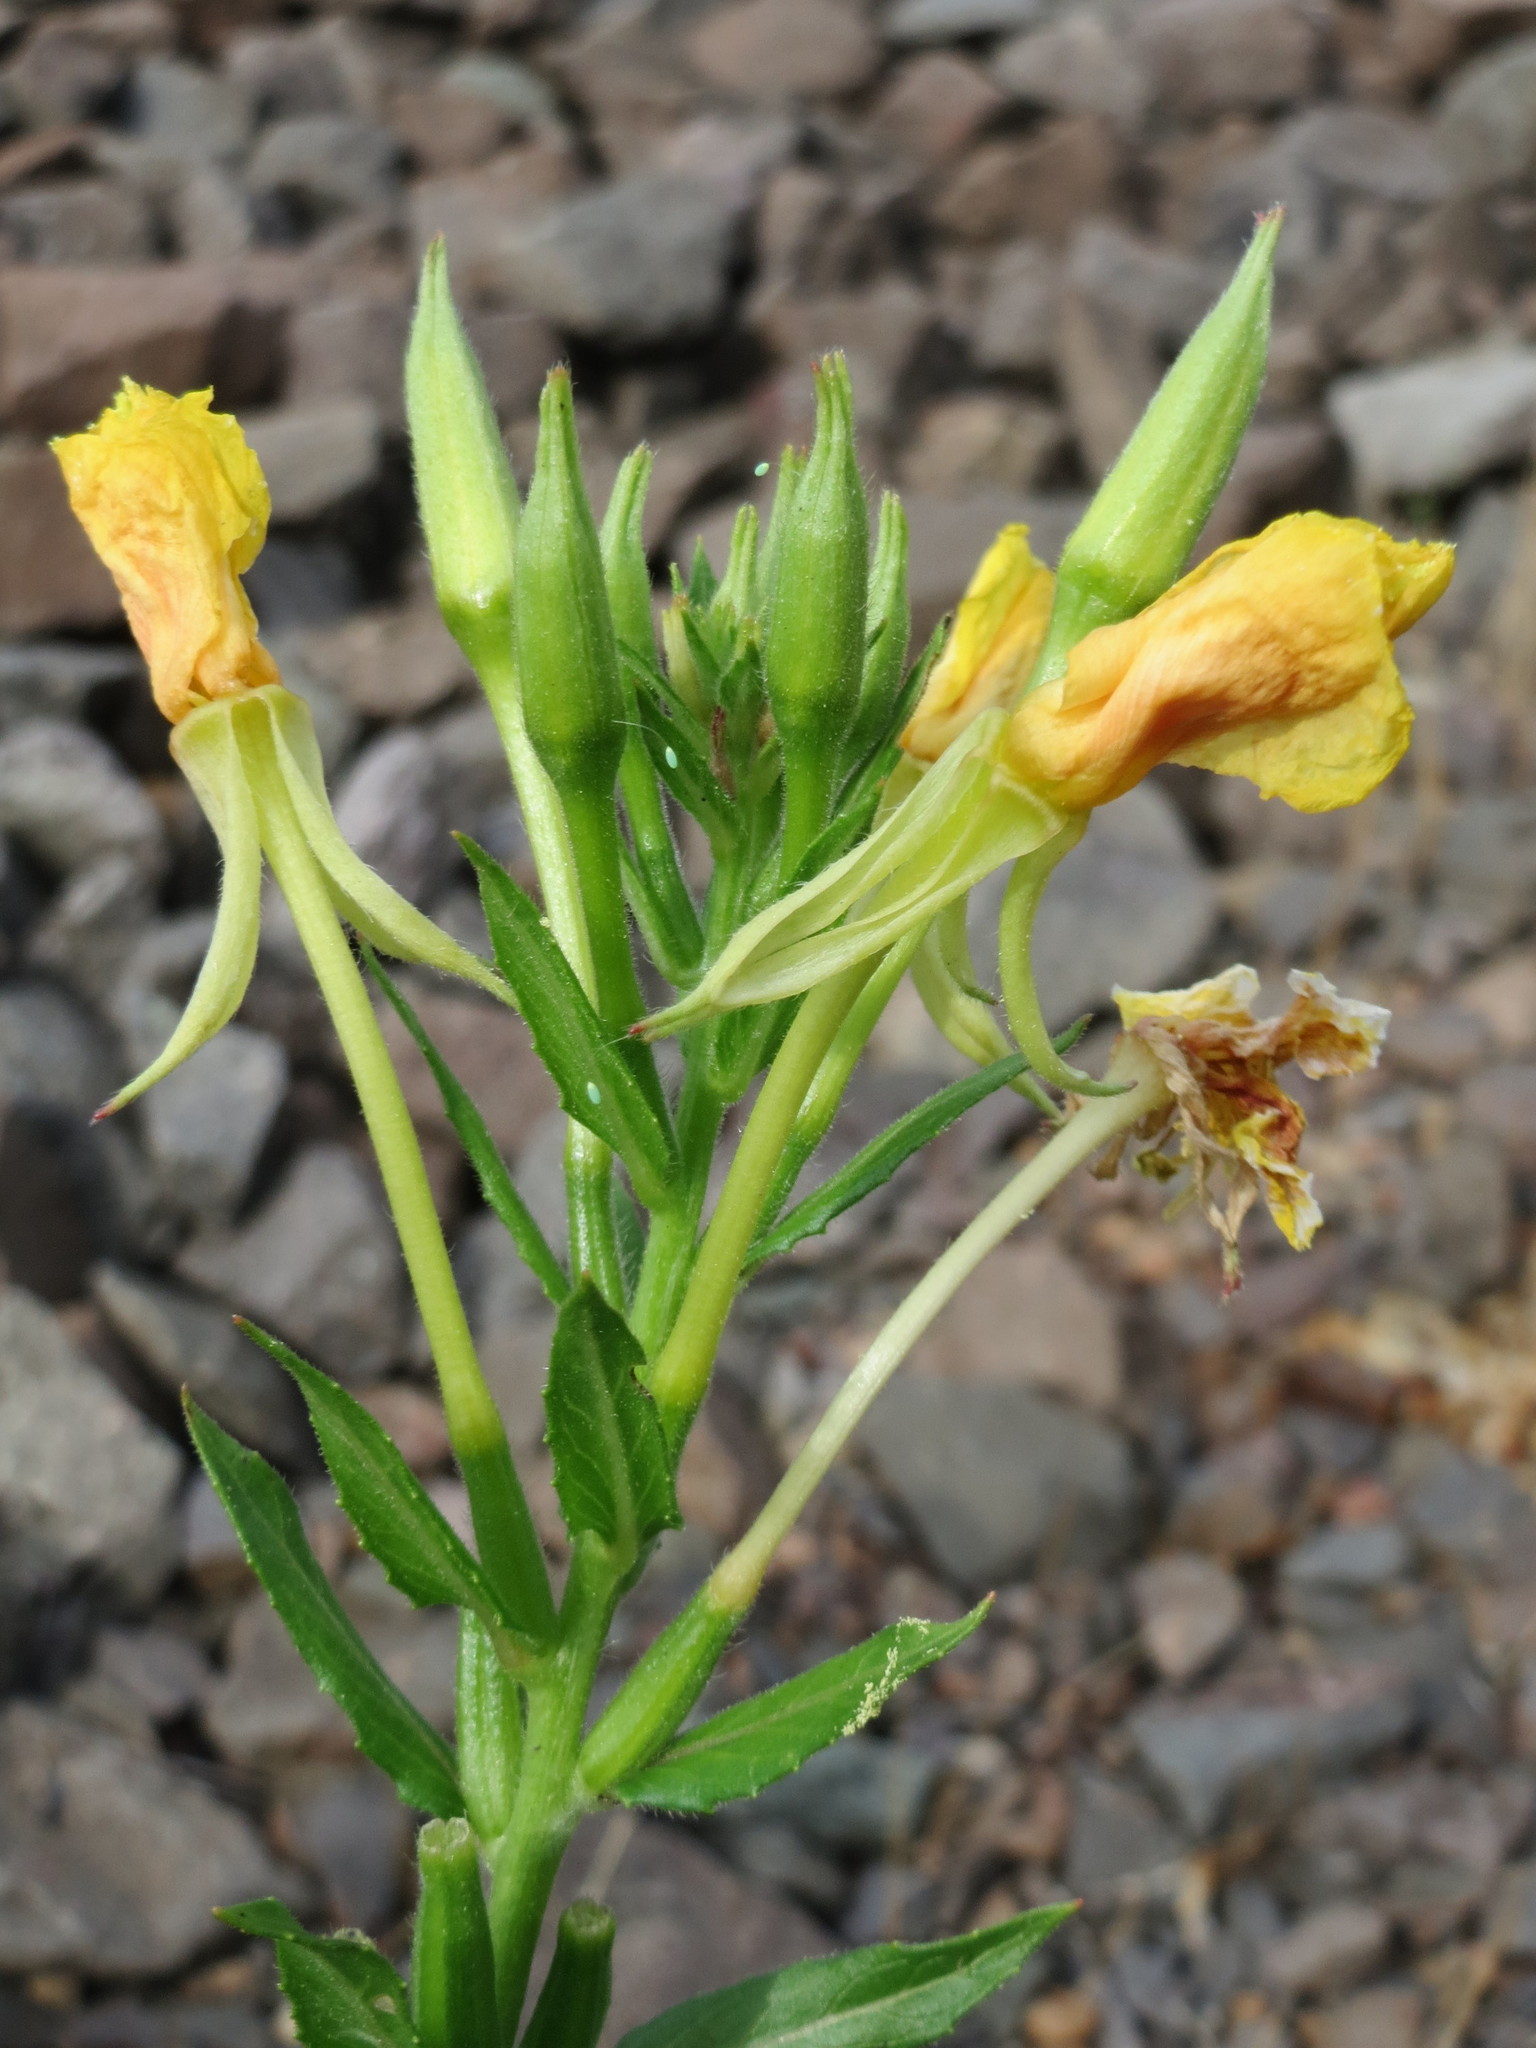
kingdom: Plantae
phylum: Tracheophyta
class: Magnoliopsida
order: Myrtales
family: Onagraceae
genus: Oenothera
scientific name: Oenothera biennis
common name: Common evening-primrose
